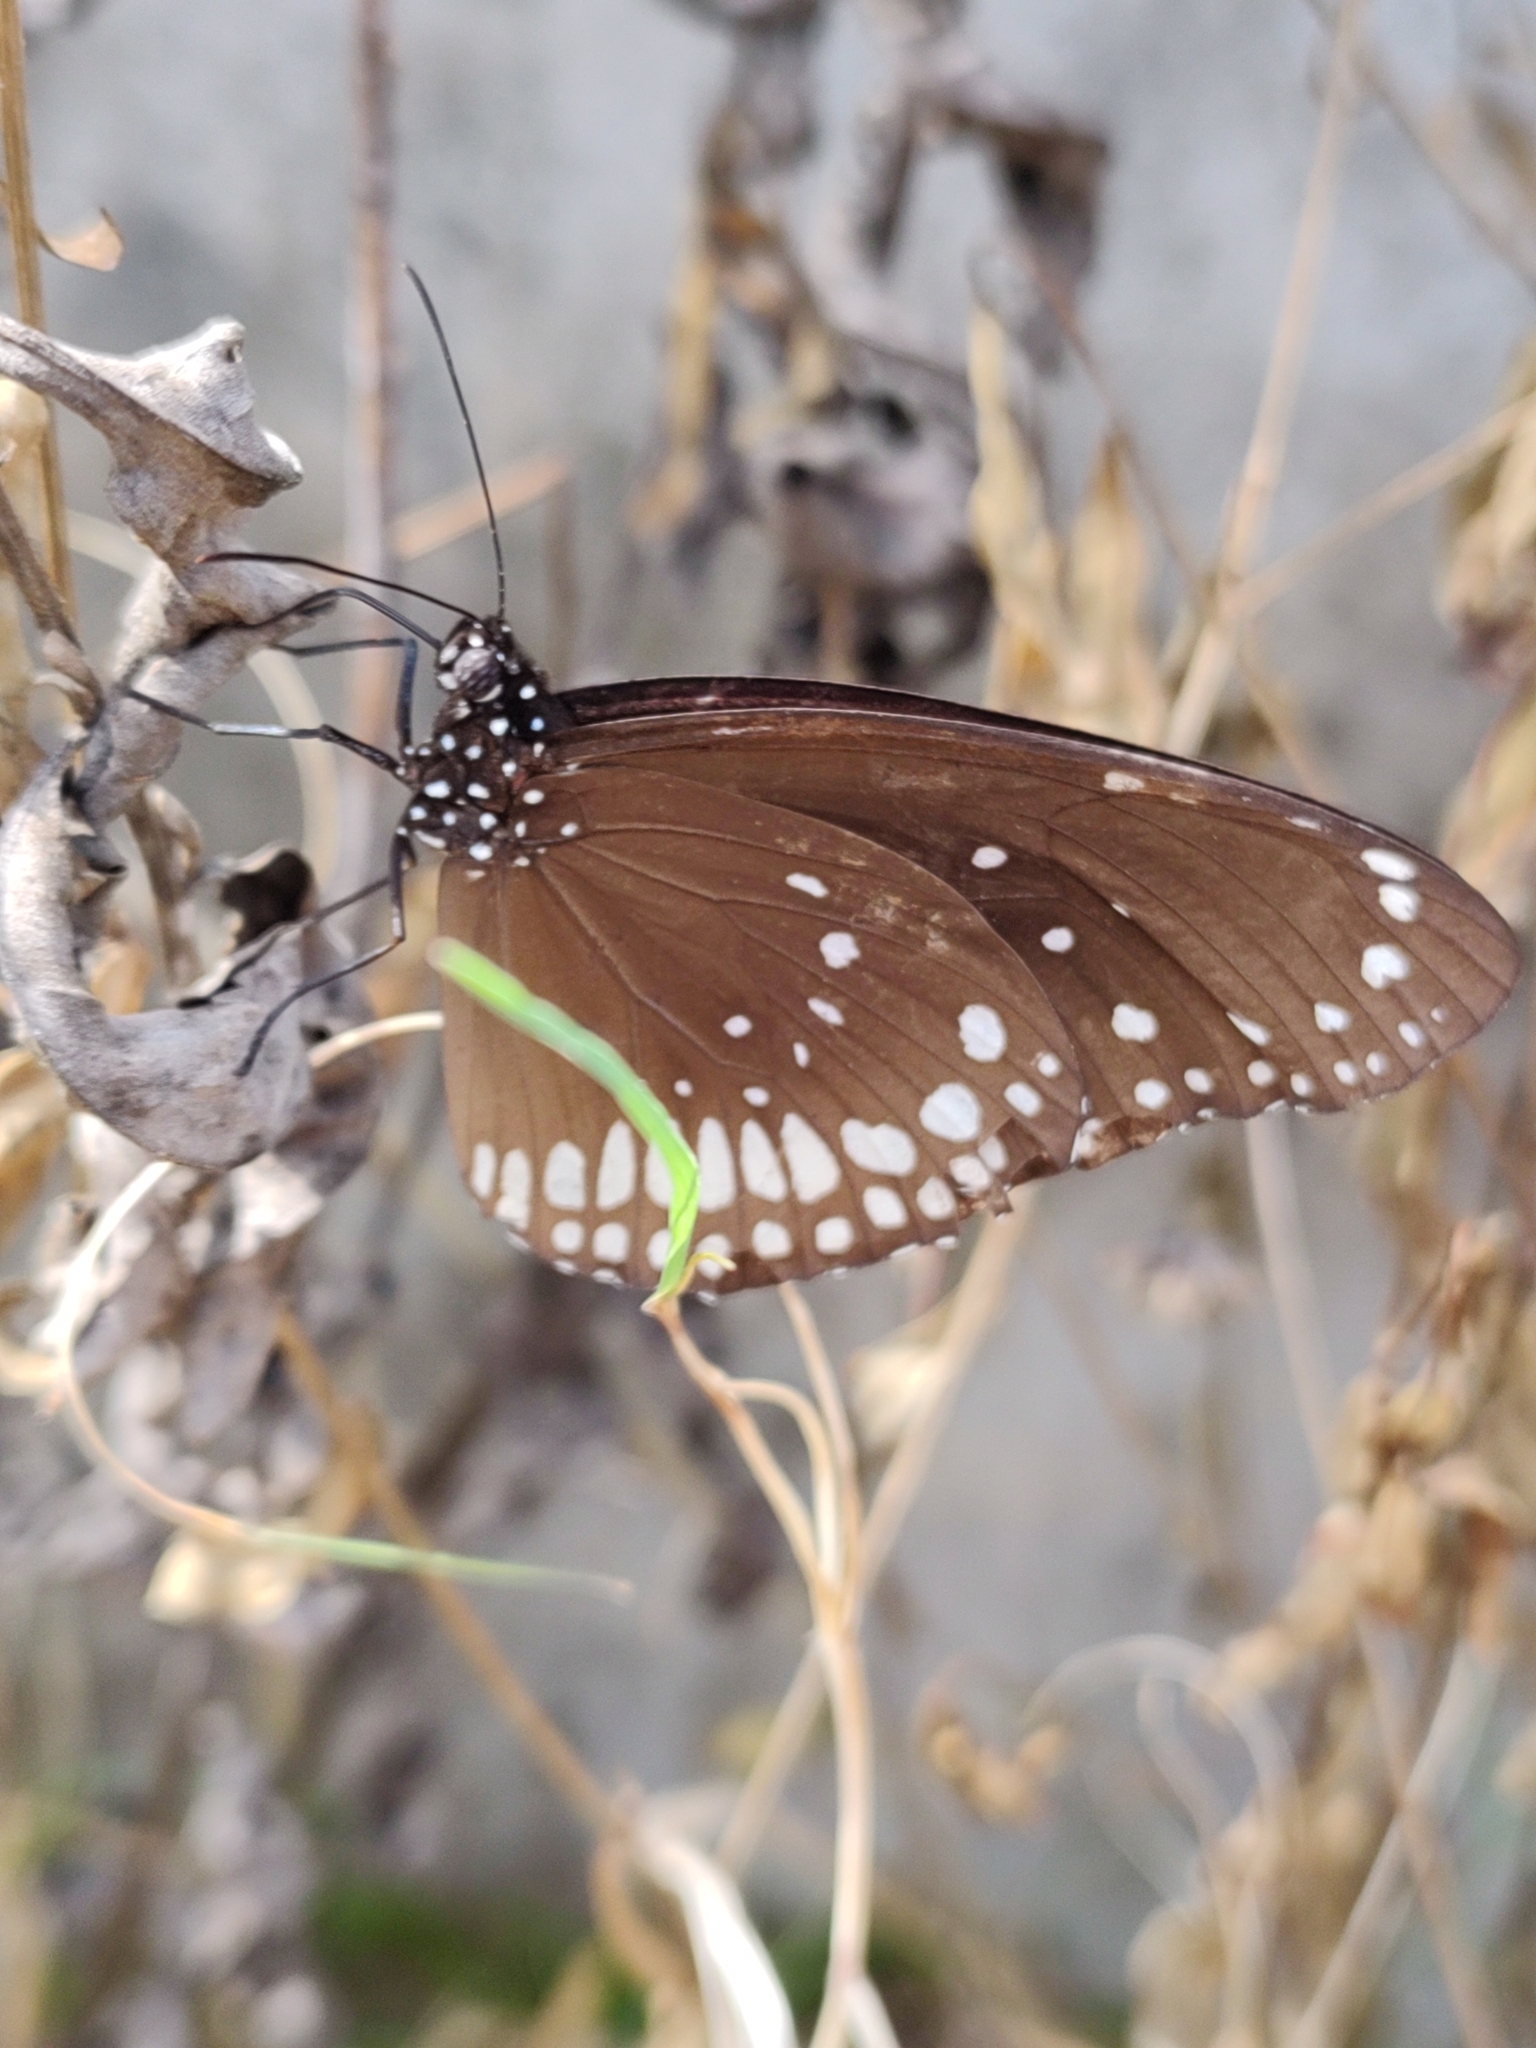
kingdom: Animalia
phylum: Arthropoda
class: Insecta
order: Lepidoptera
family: Nymphalidae
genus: Euploea
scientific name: Euploea core
